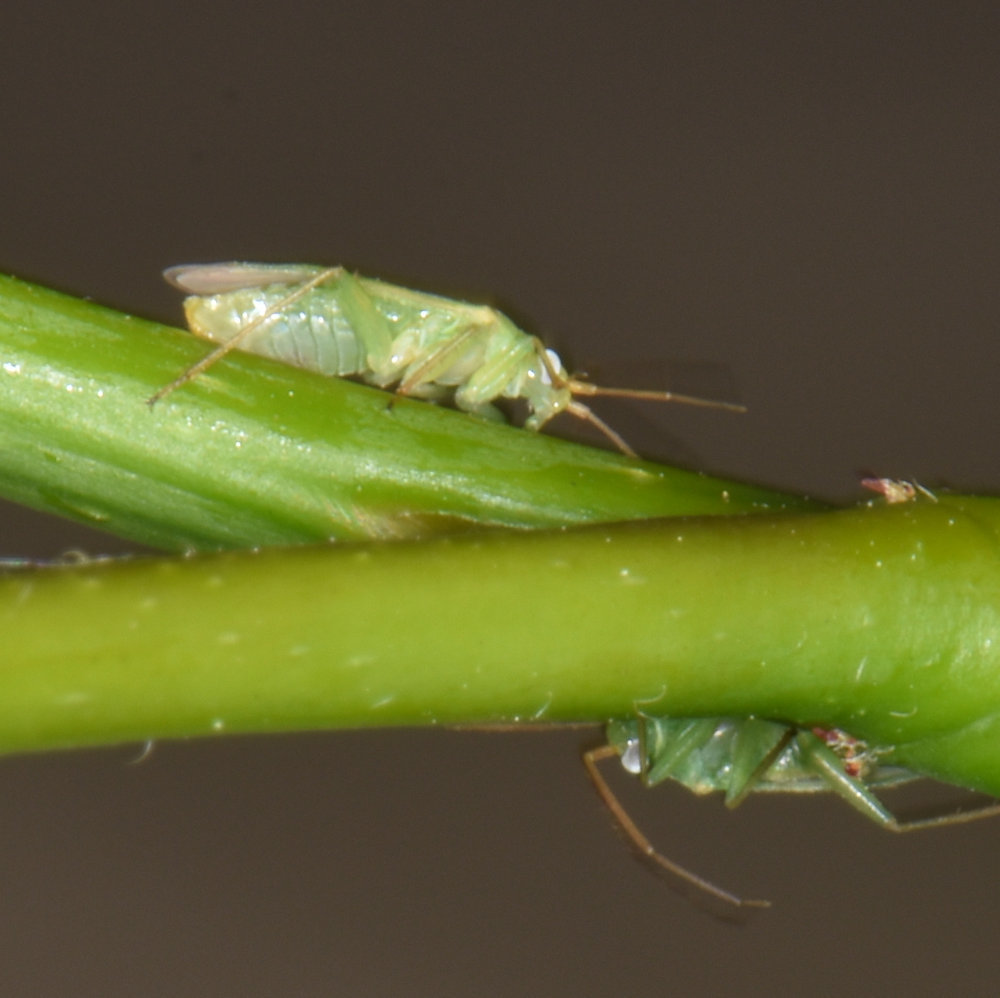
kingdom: Animalia
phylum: Arthropoda
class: Insecta
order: Hemiptera
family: Miridae
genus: Blepharidopterus
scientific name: Blepharidopterus chlorionis
